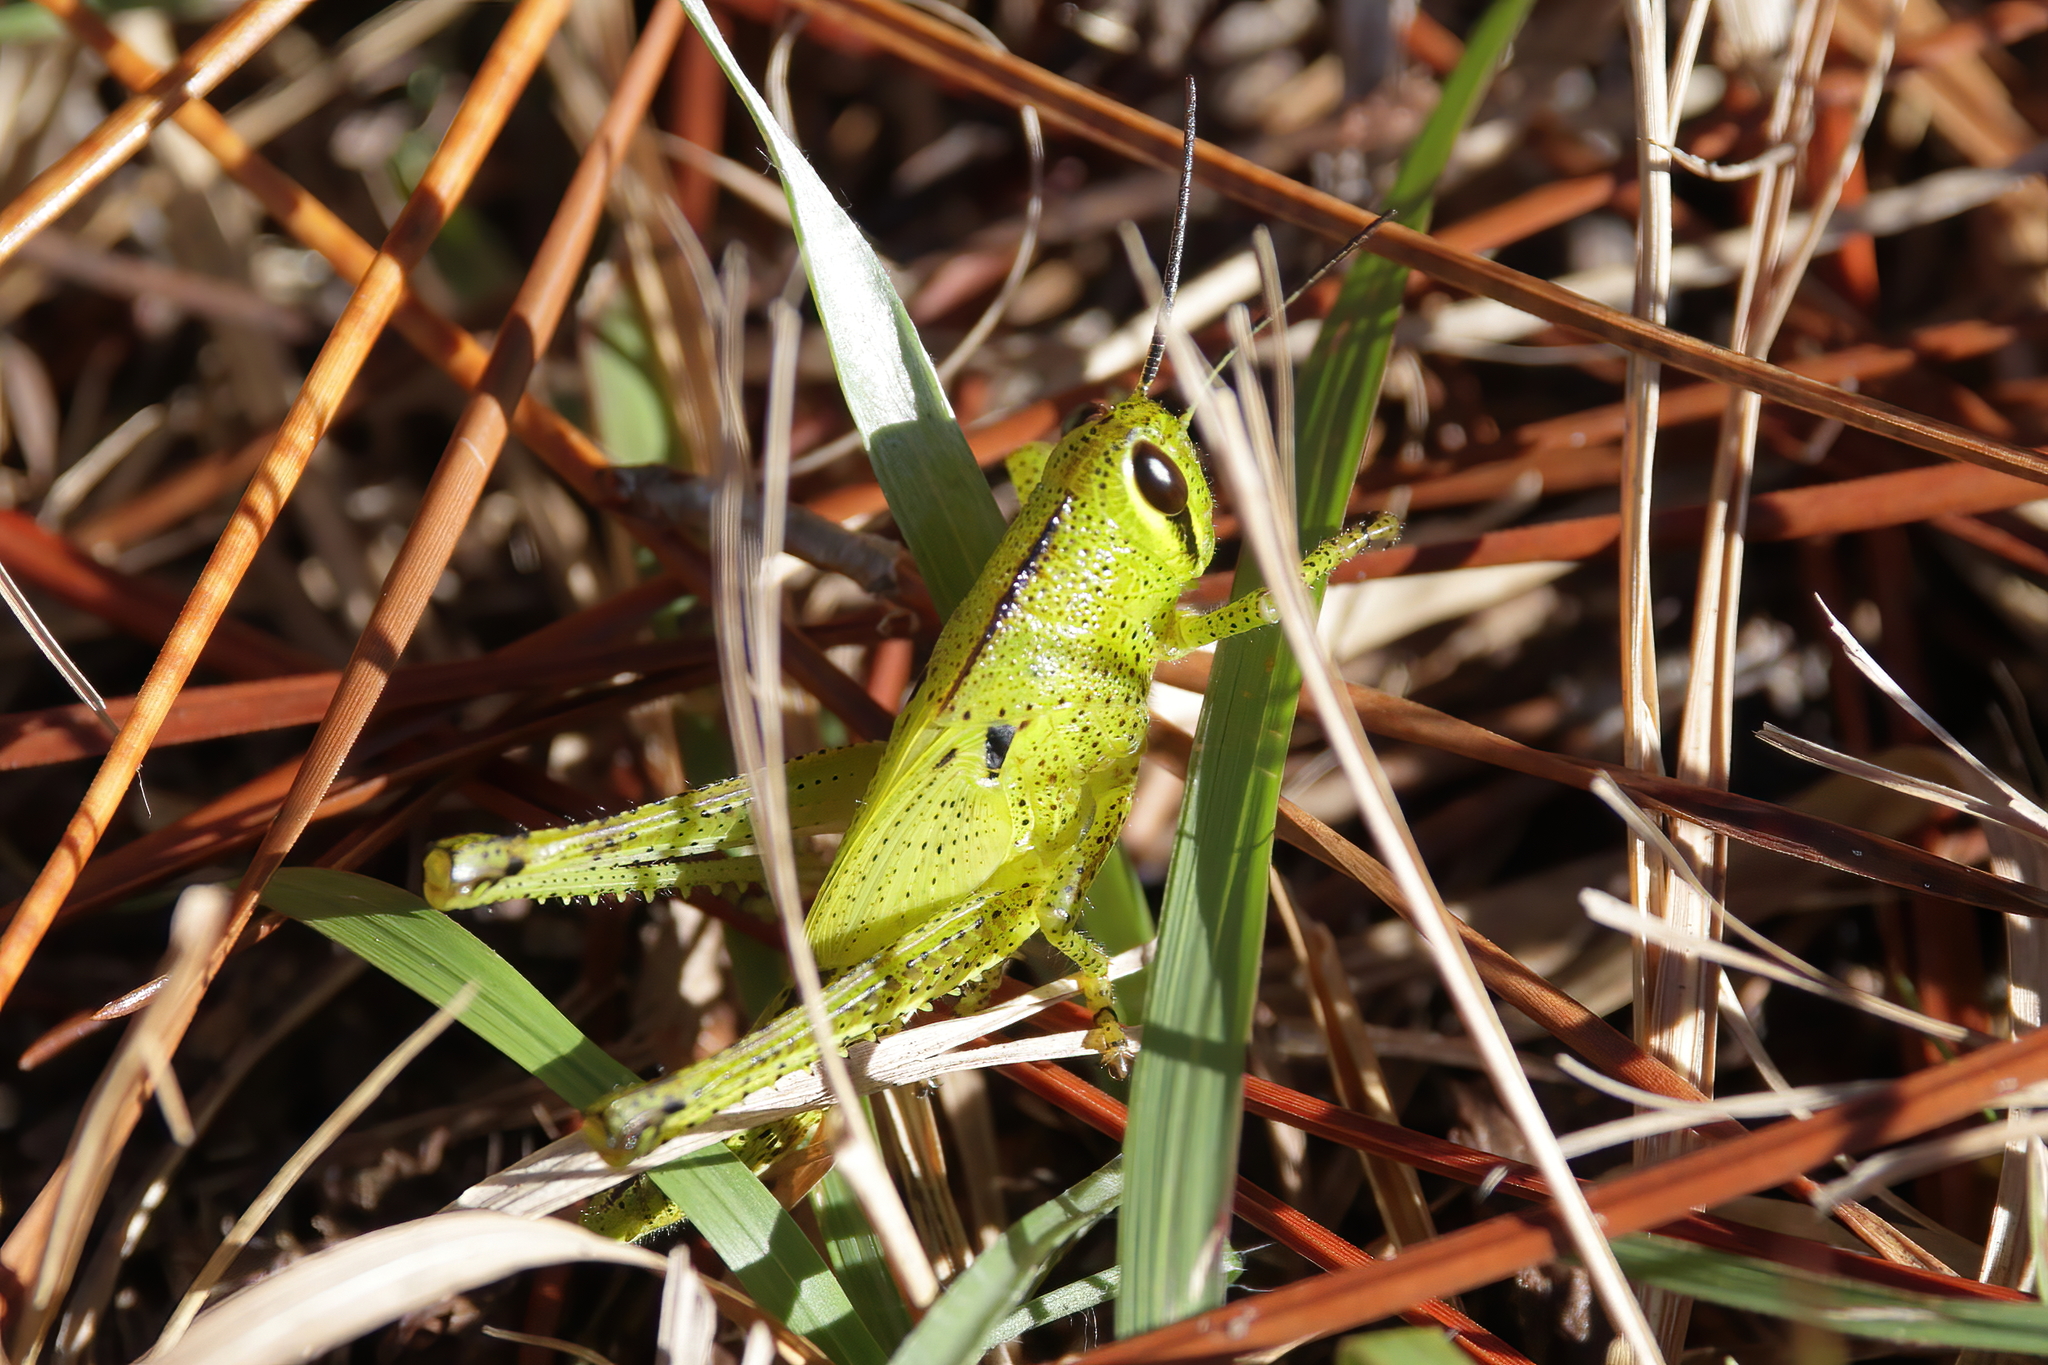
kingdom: Animalia
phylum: Arthropoda
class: Insecta
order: Orthoptera
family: Acrididae
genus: Schistocerca
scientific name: Schistocerca americana
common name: American bird locust
